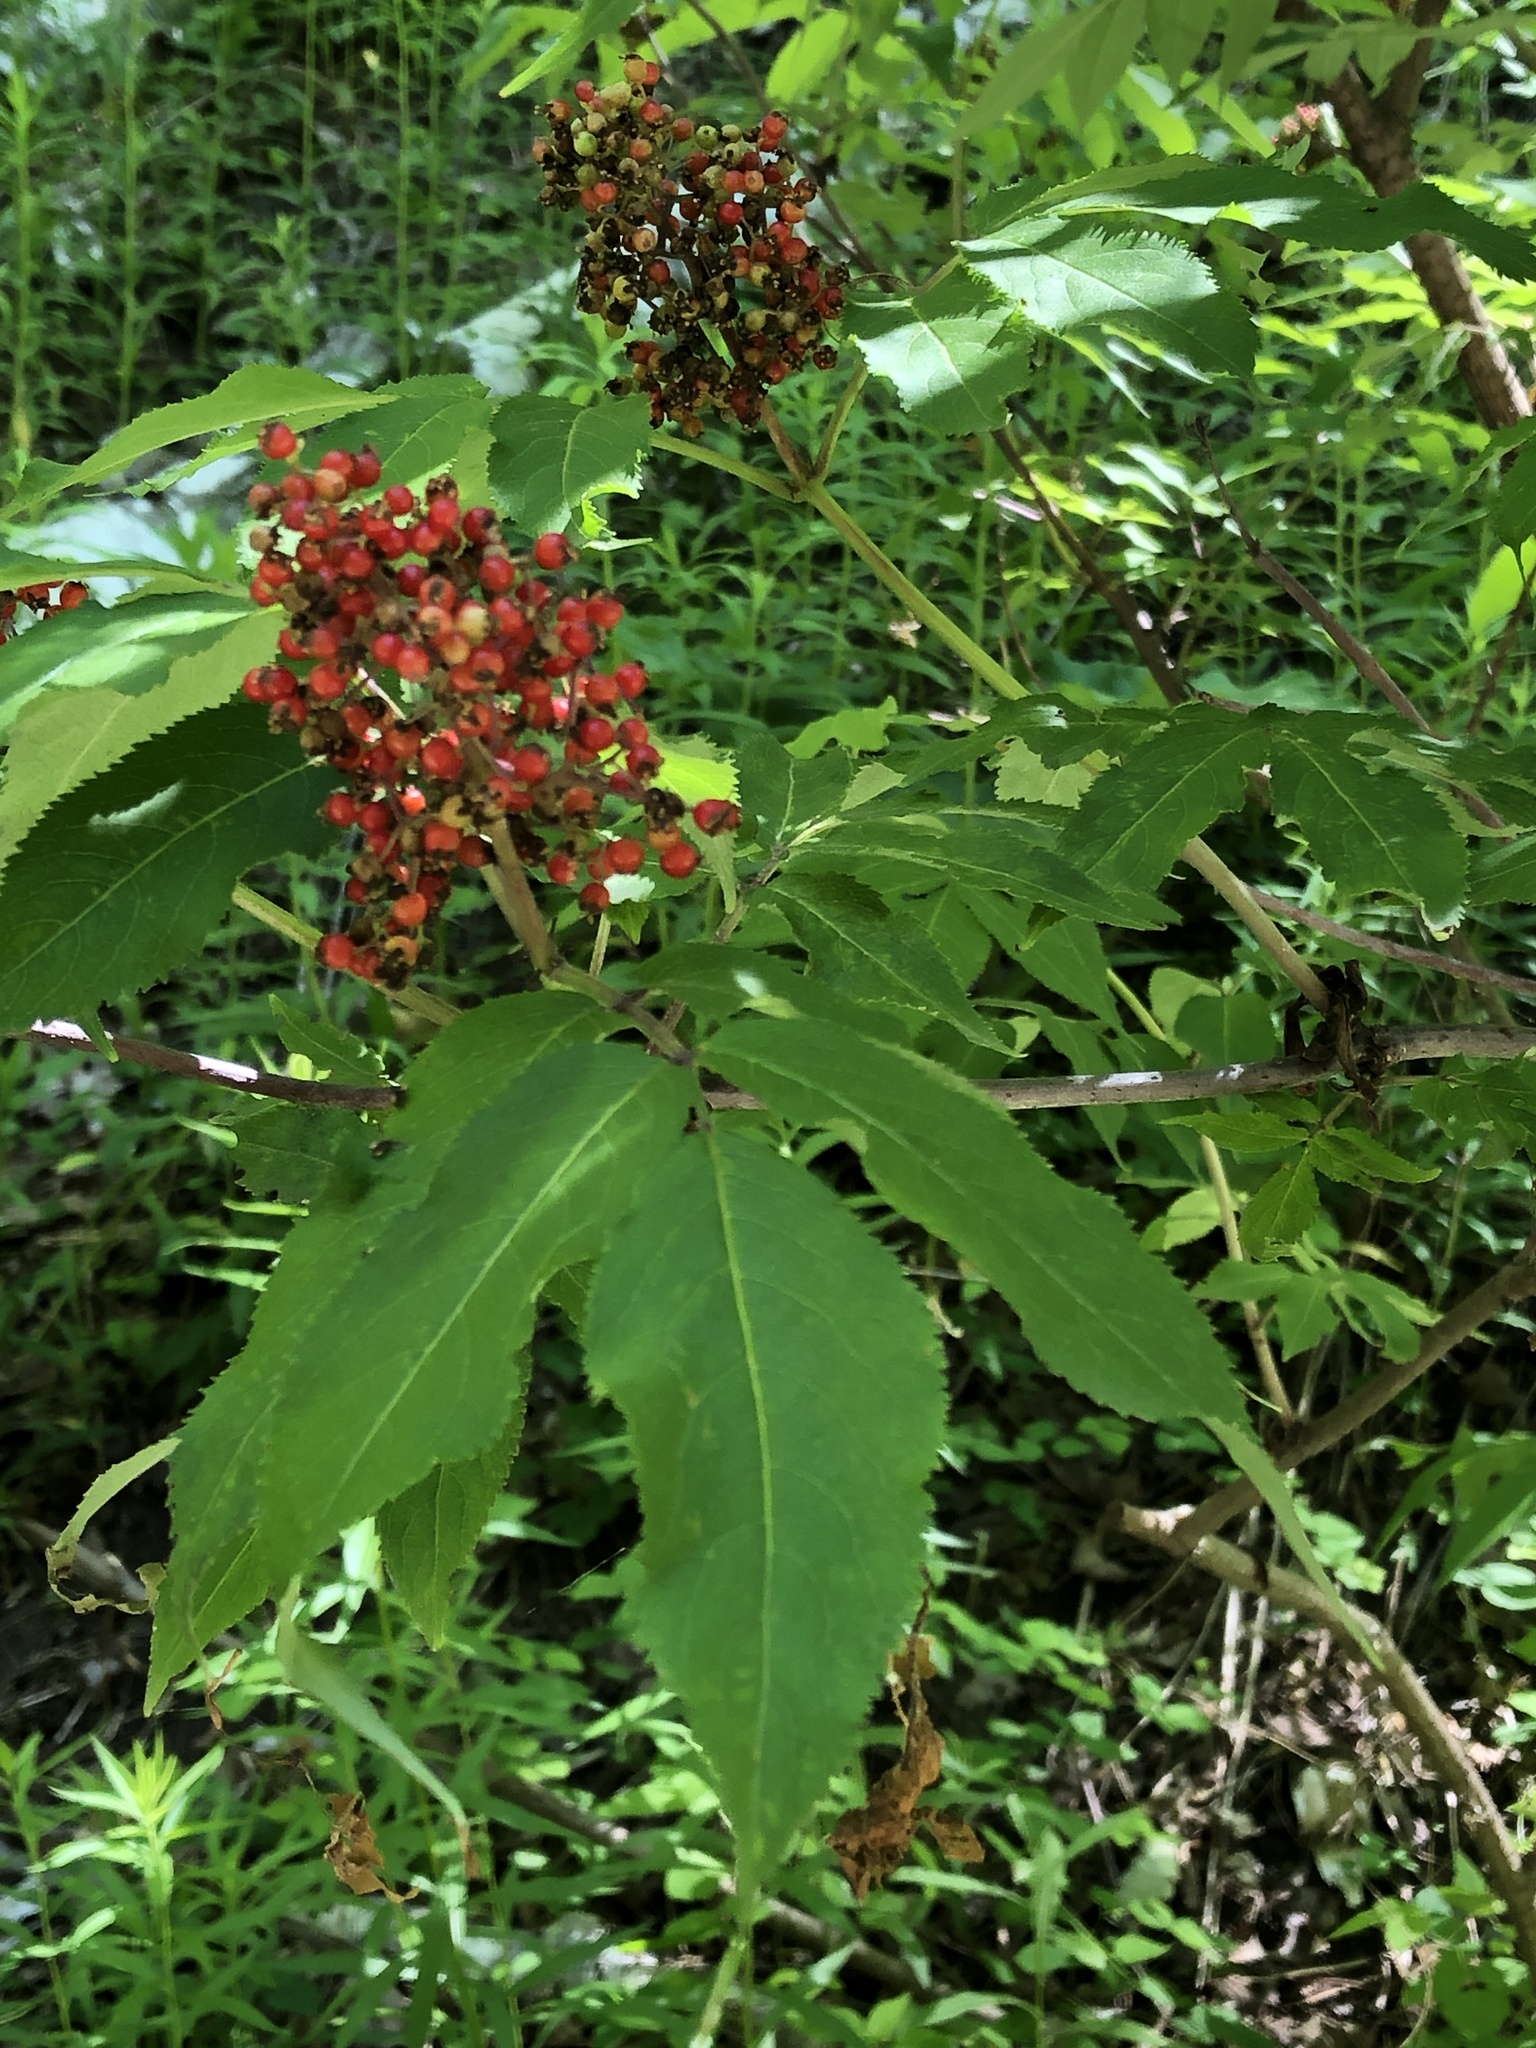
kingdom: Plantae
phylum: Tracheophyta
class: Magnoliopsida
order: Dipsacales
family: Viburnaceae
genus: Sambucus
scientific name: Sambucus racemosa
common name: Red-berried elder
